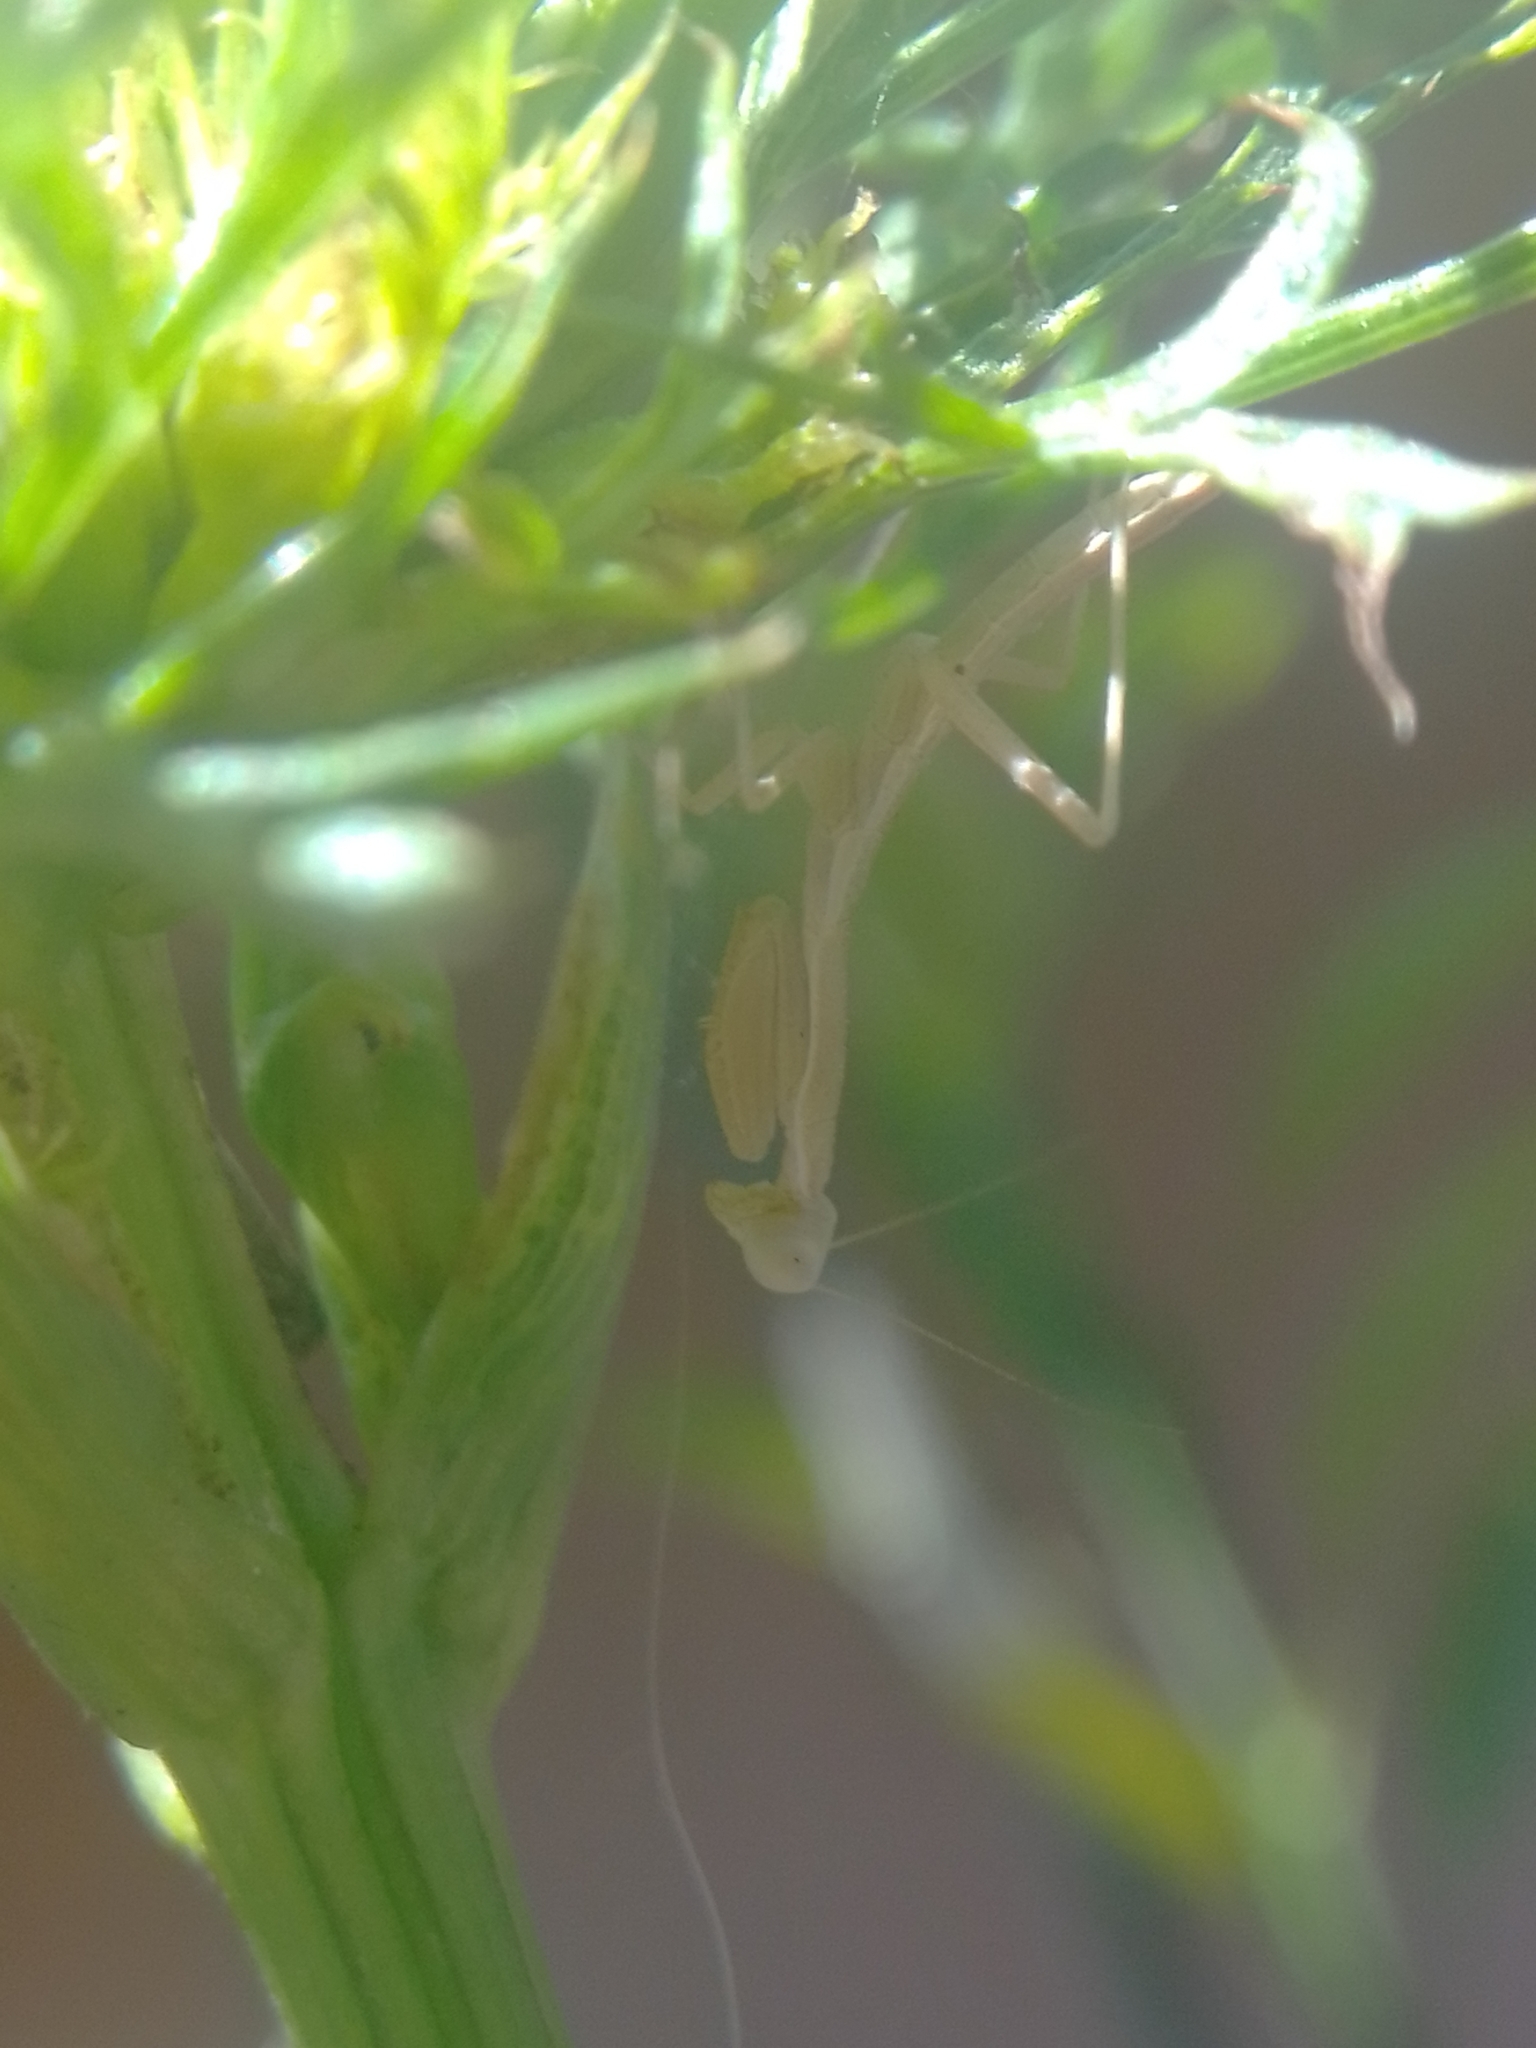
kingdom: Animalia
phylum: Arthropoda
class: Insecta
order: Mantodea
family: Eremiaphilidae
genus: Iris
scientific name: Iris oratoria
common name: Mediterranean mantis
